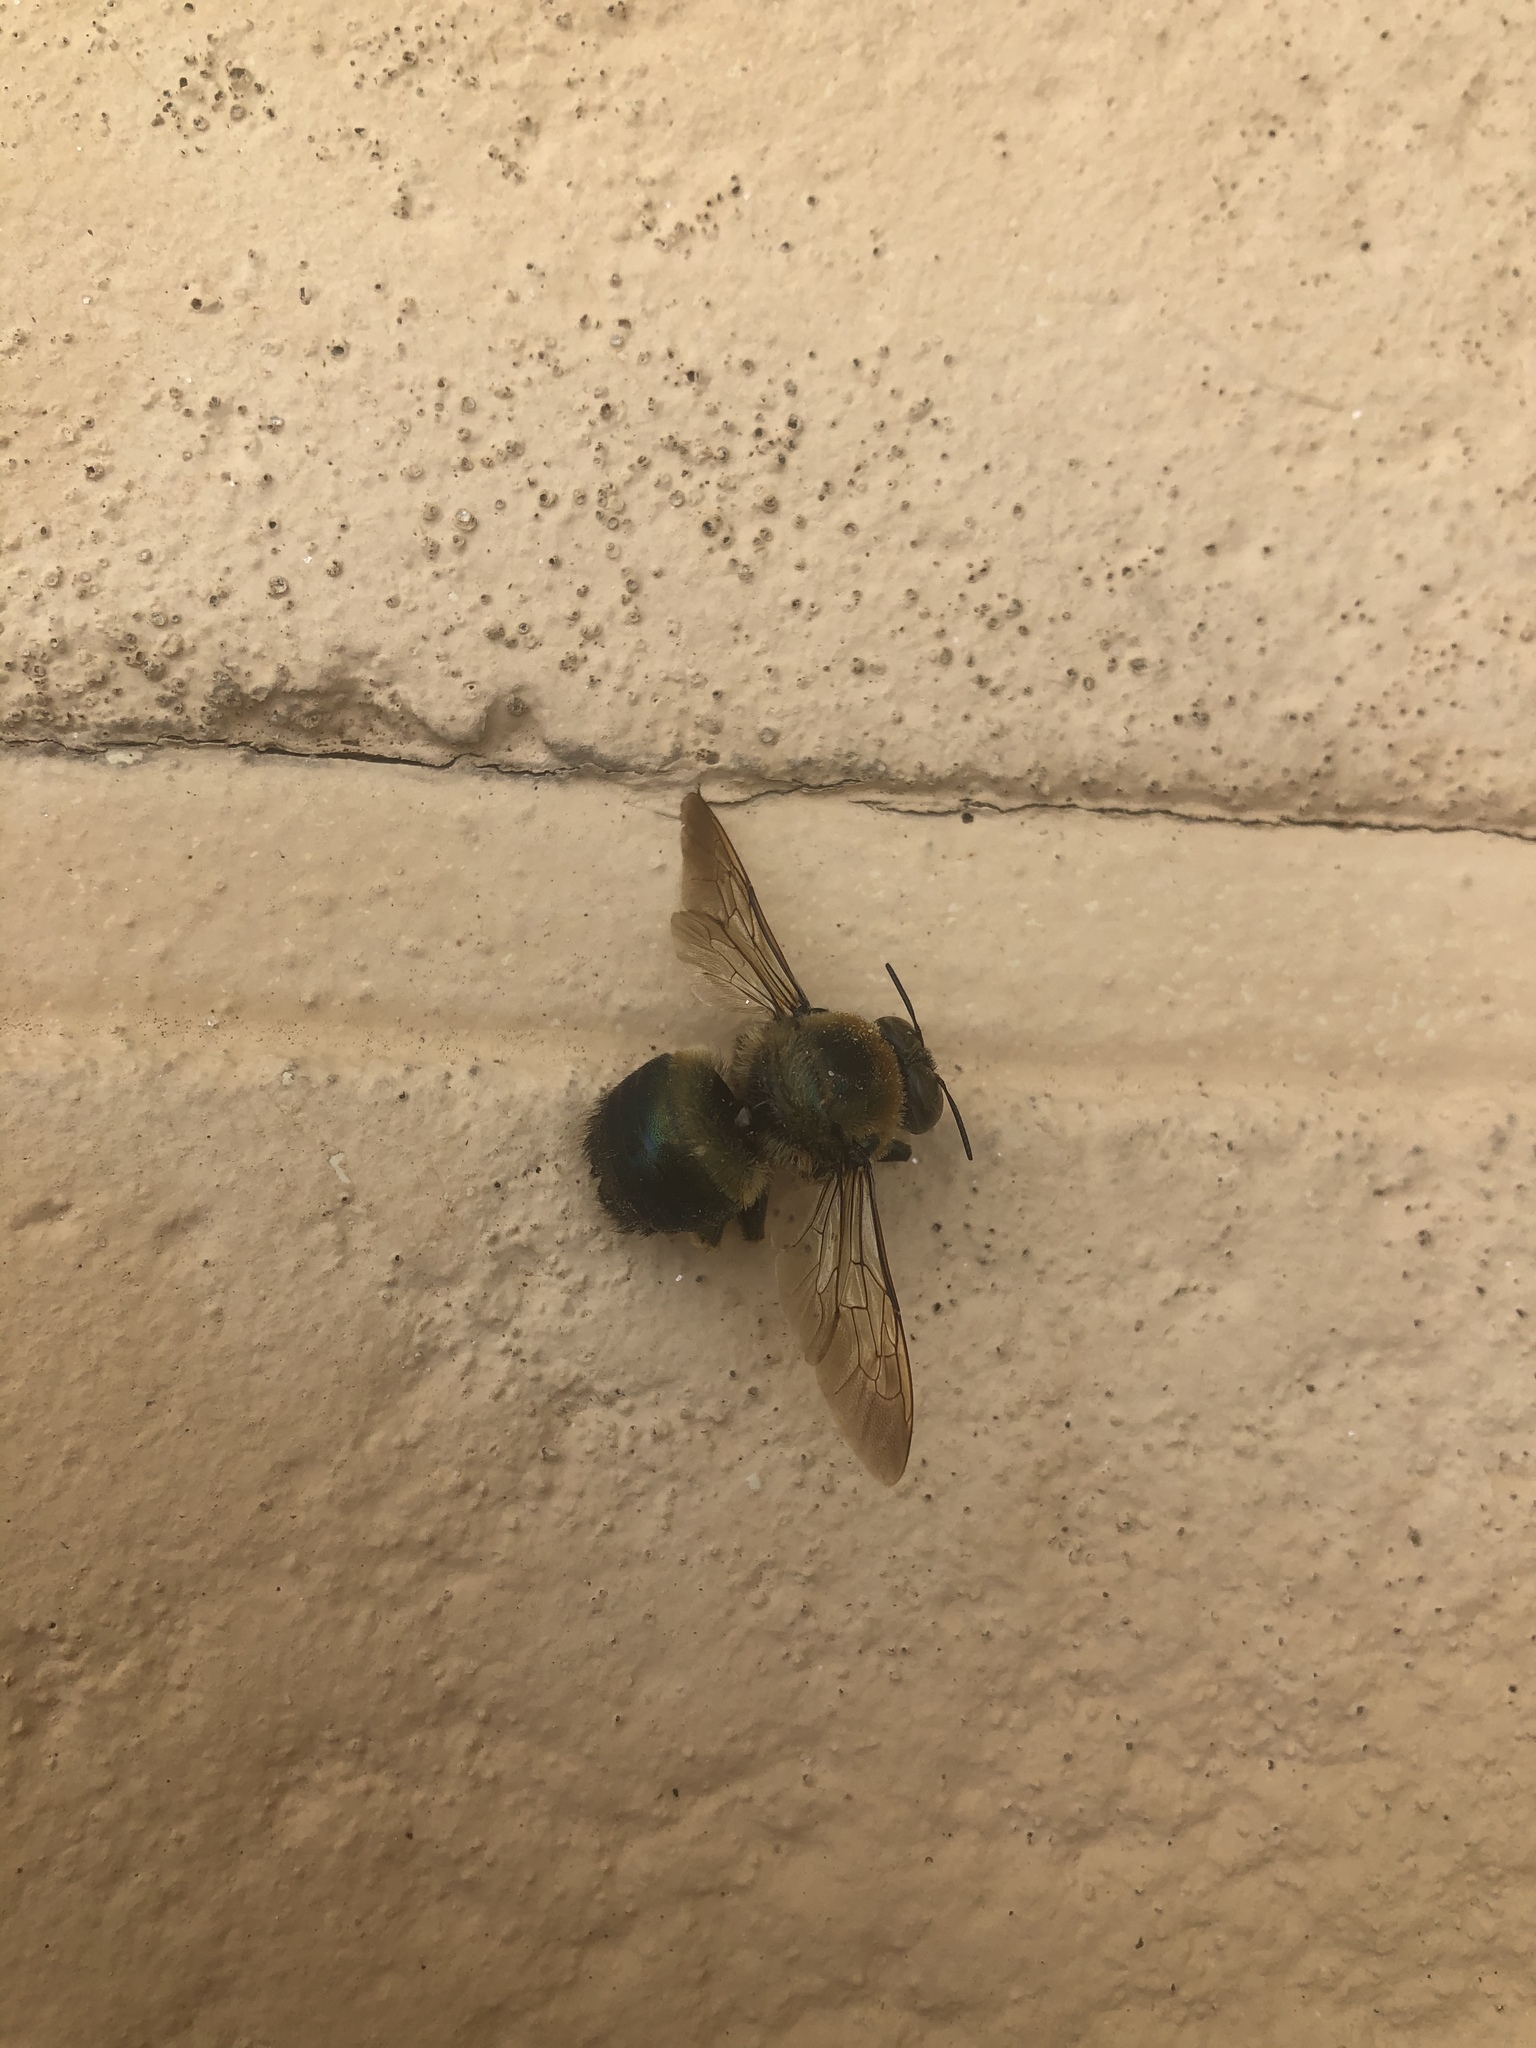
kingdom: Animalia
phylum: Arthropoda
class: Insecta
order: Hymenoptera
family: Apidae
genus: Xylocopa
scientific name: Xylocopa virginica
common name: Carpenter bee
